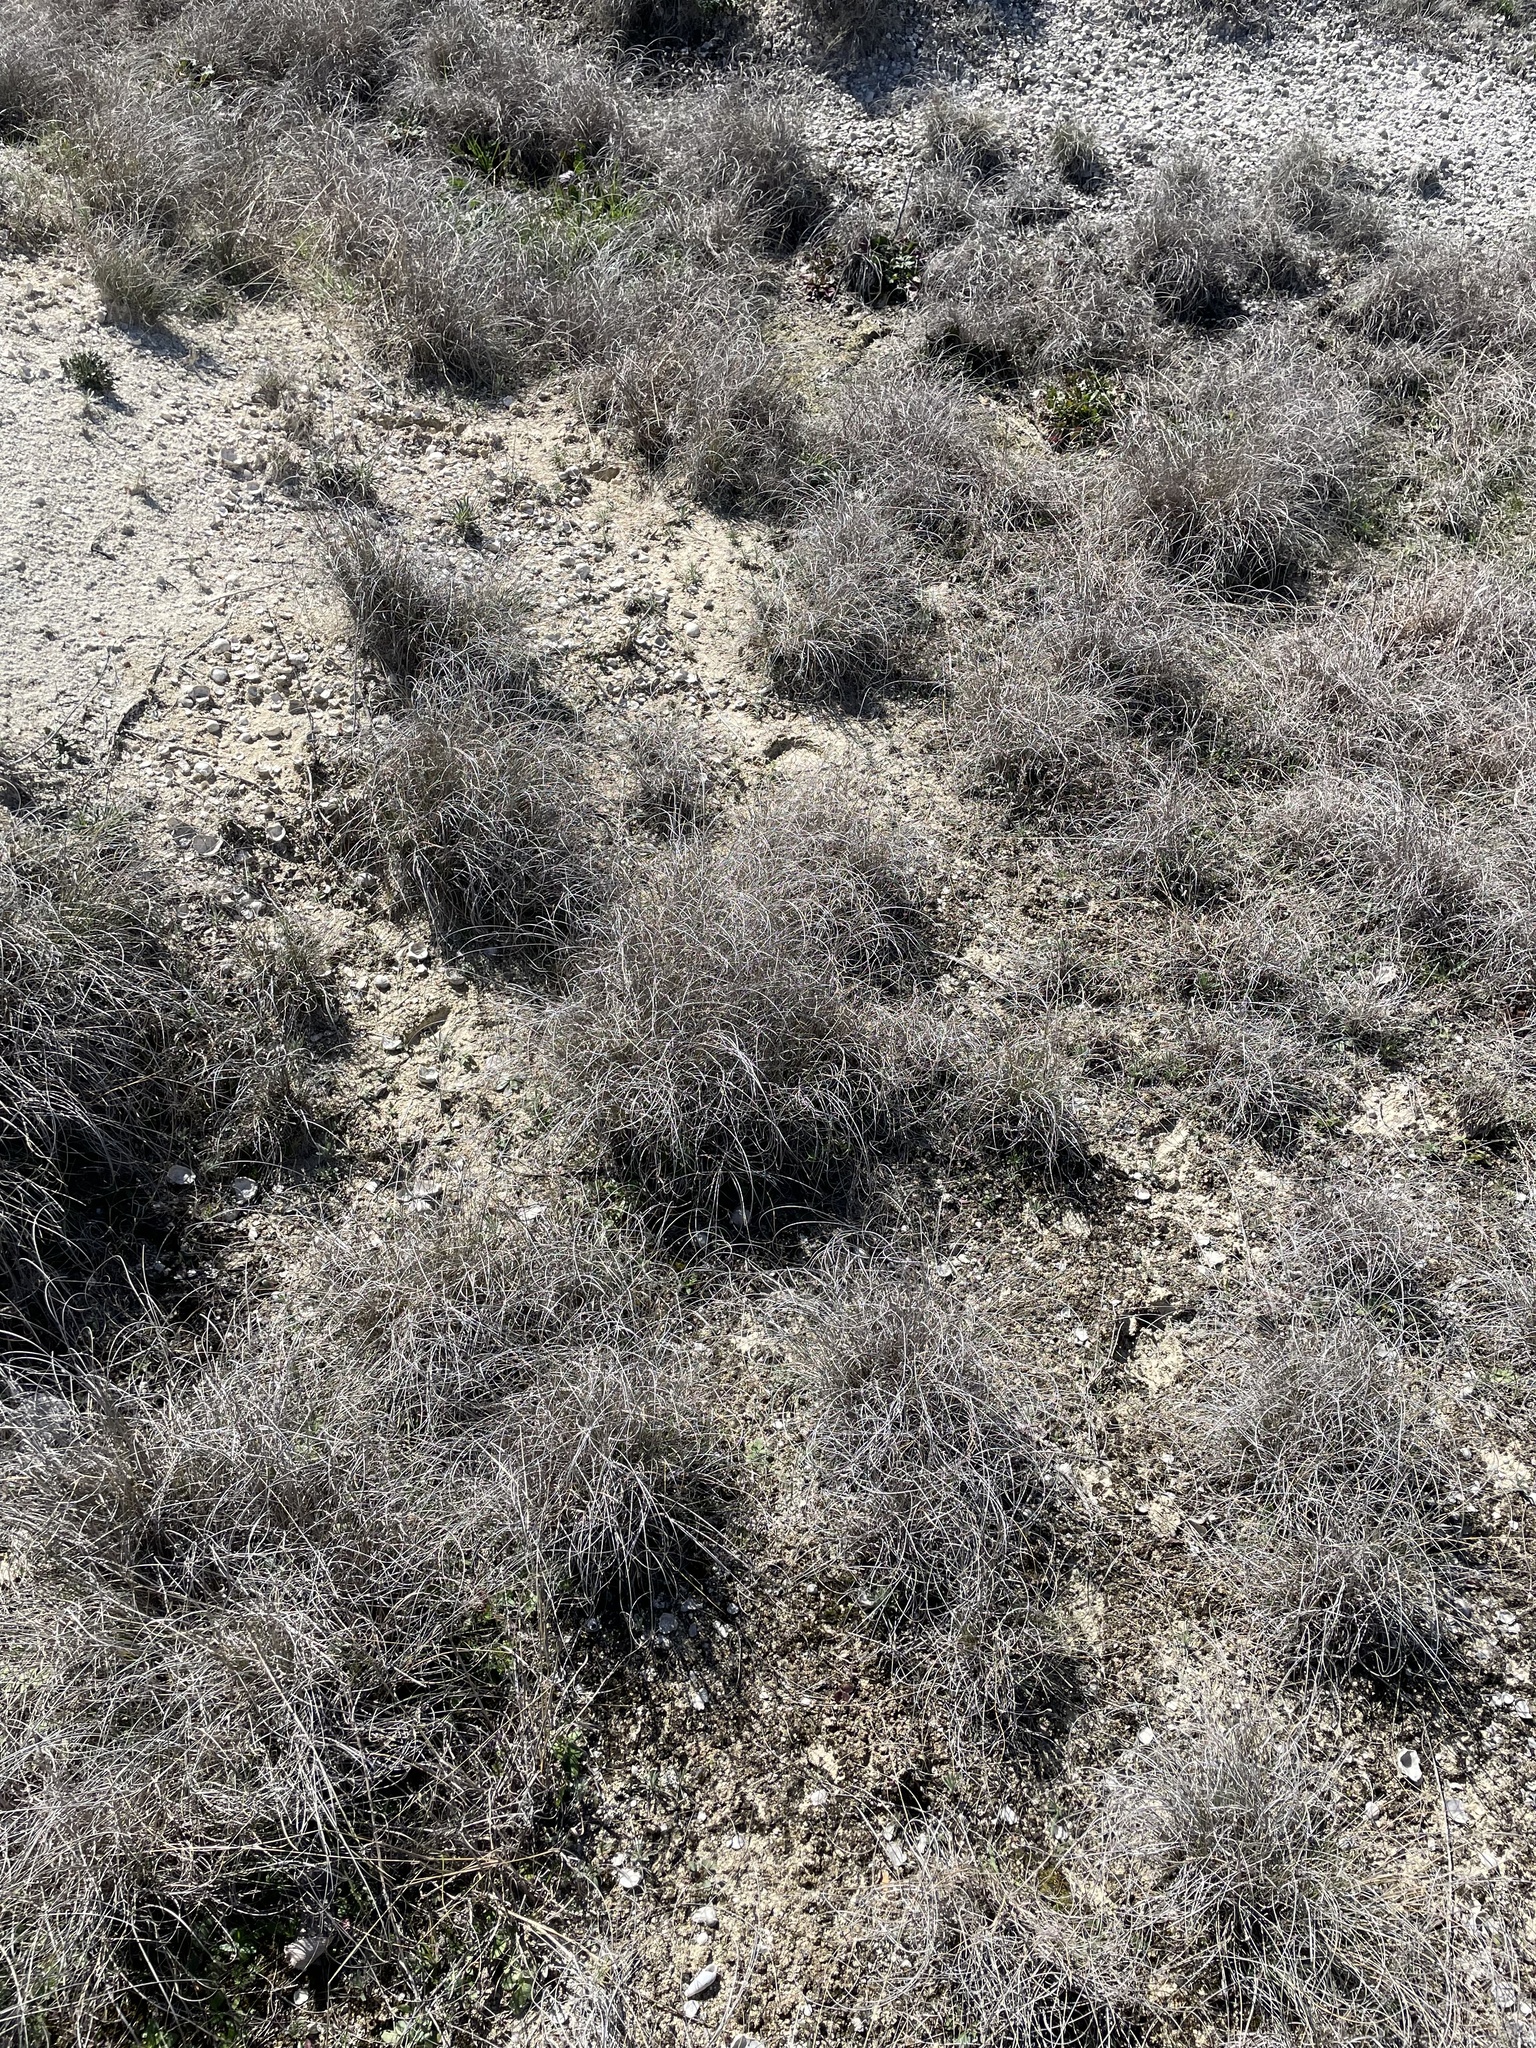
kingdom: Plantae
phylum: Tracheophyta
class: Liliopsida
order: Poales
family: Poaceae
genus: Muhlenbergia
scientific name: Muhlenbergia reverchonii
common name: Seep muhly
